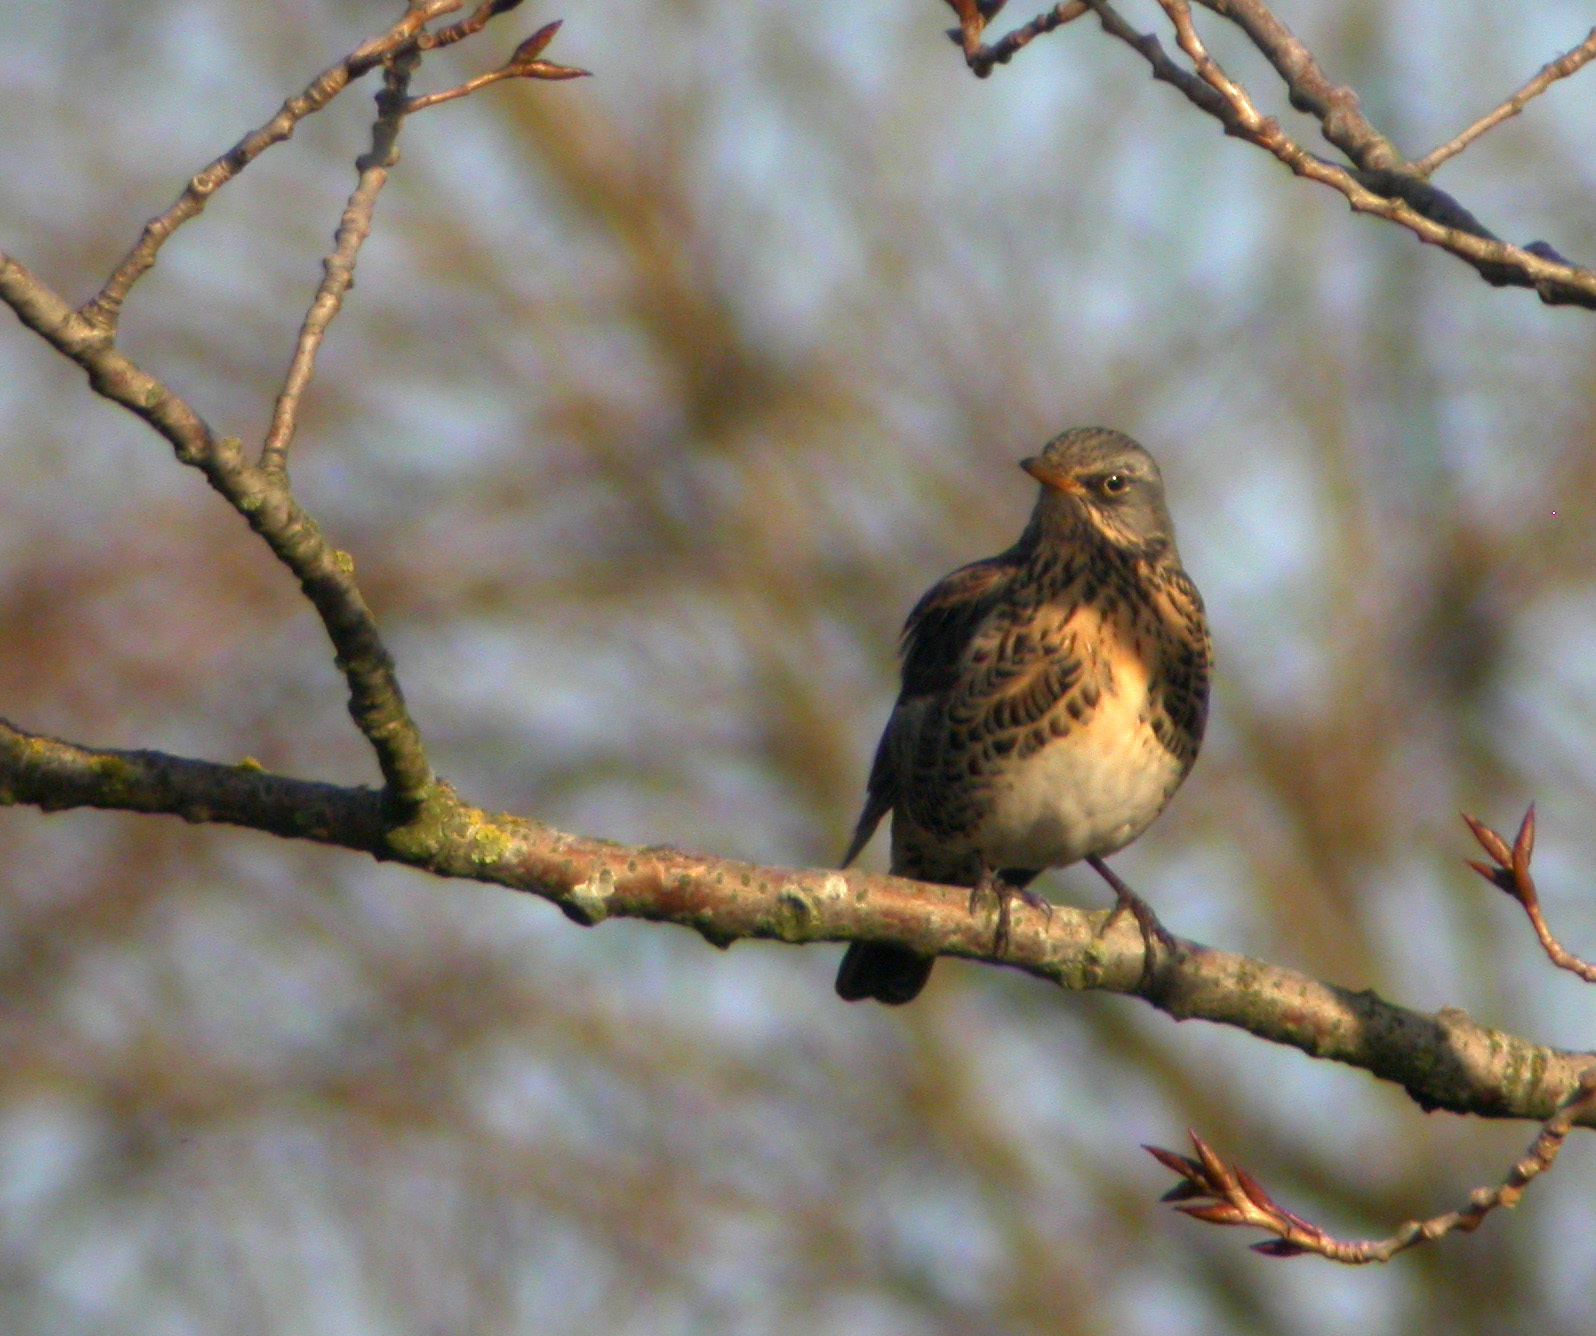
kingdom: Animalia
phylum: Chordata
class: Aves
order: Passeriformes
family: Turdidae
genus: Turdus
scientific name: Turdus pilaris
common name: Fieldfare
